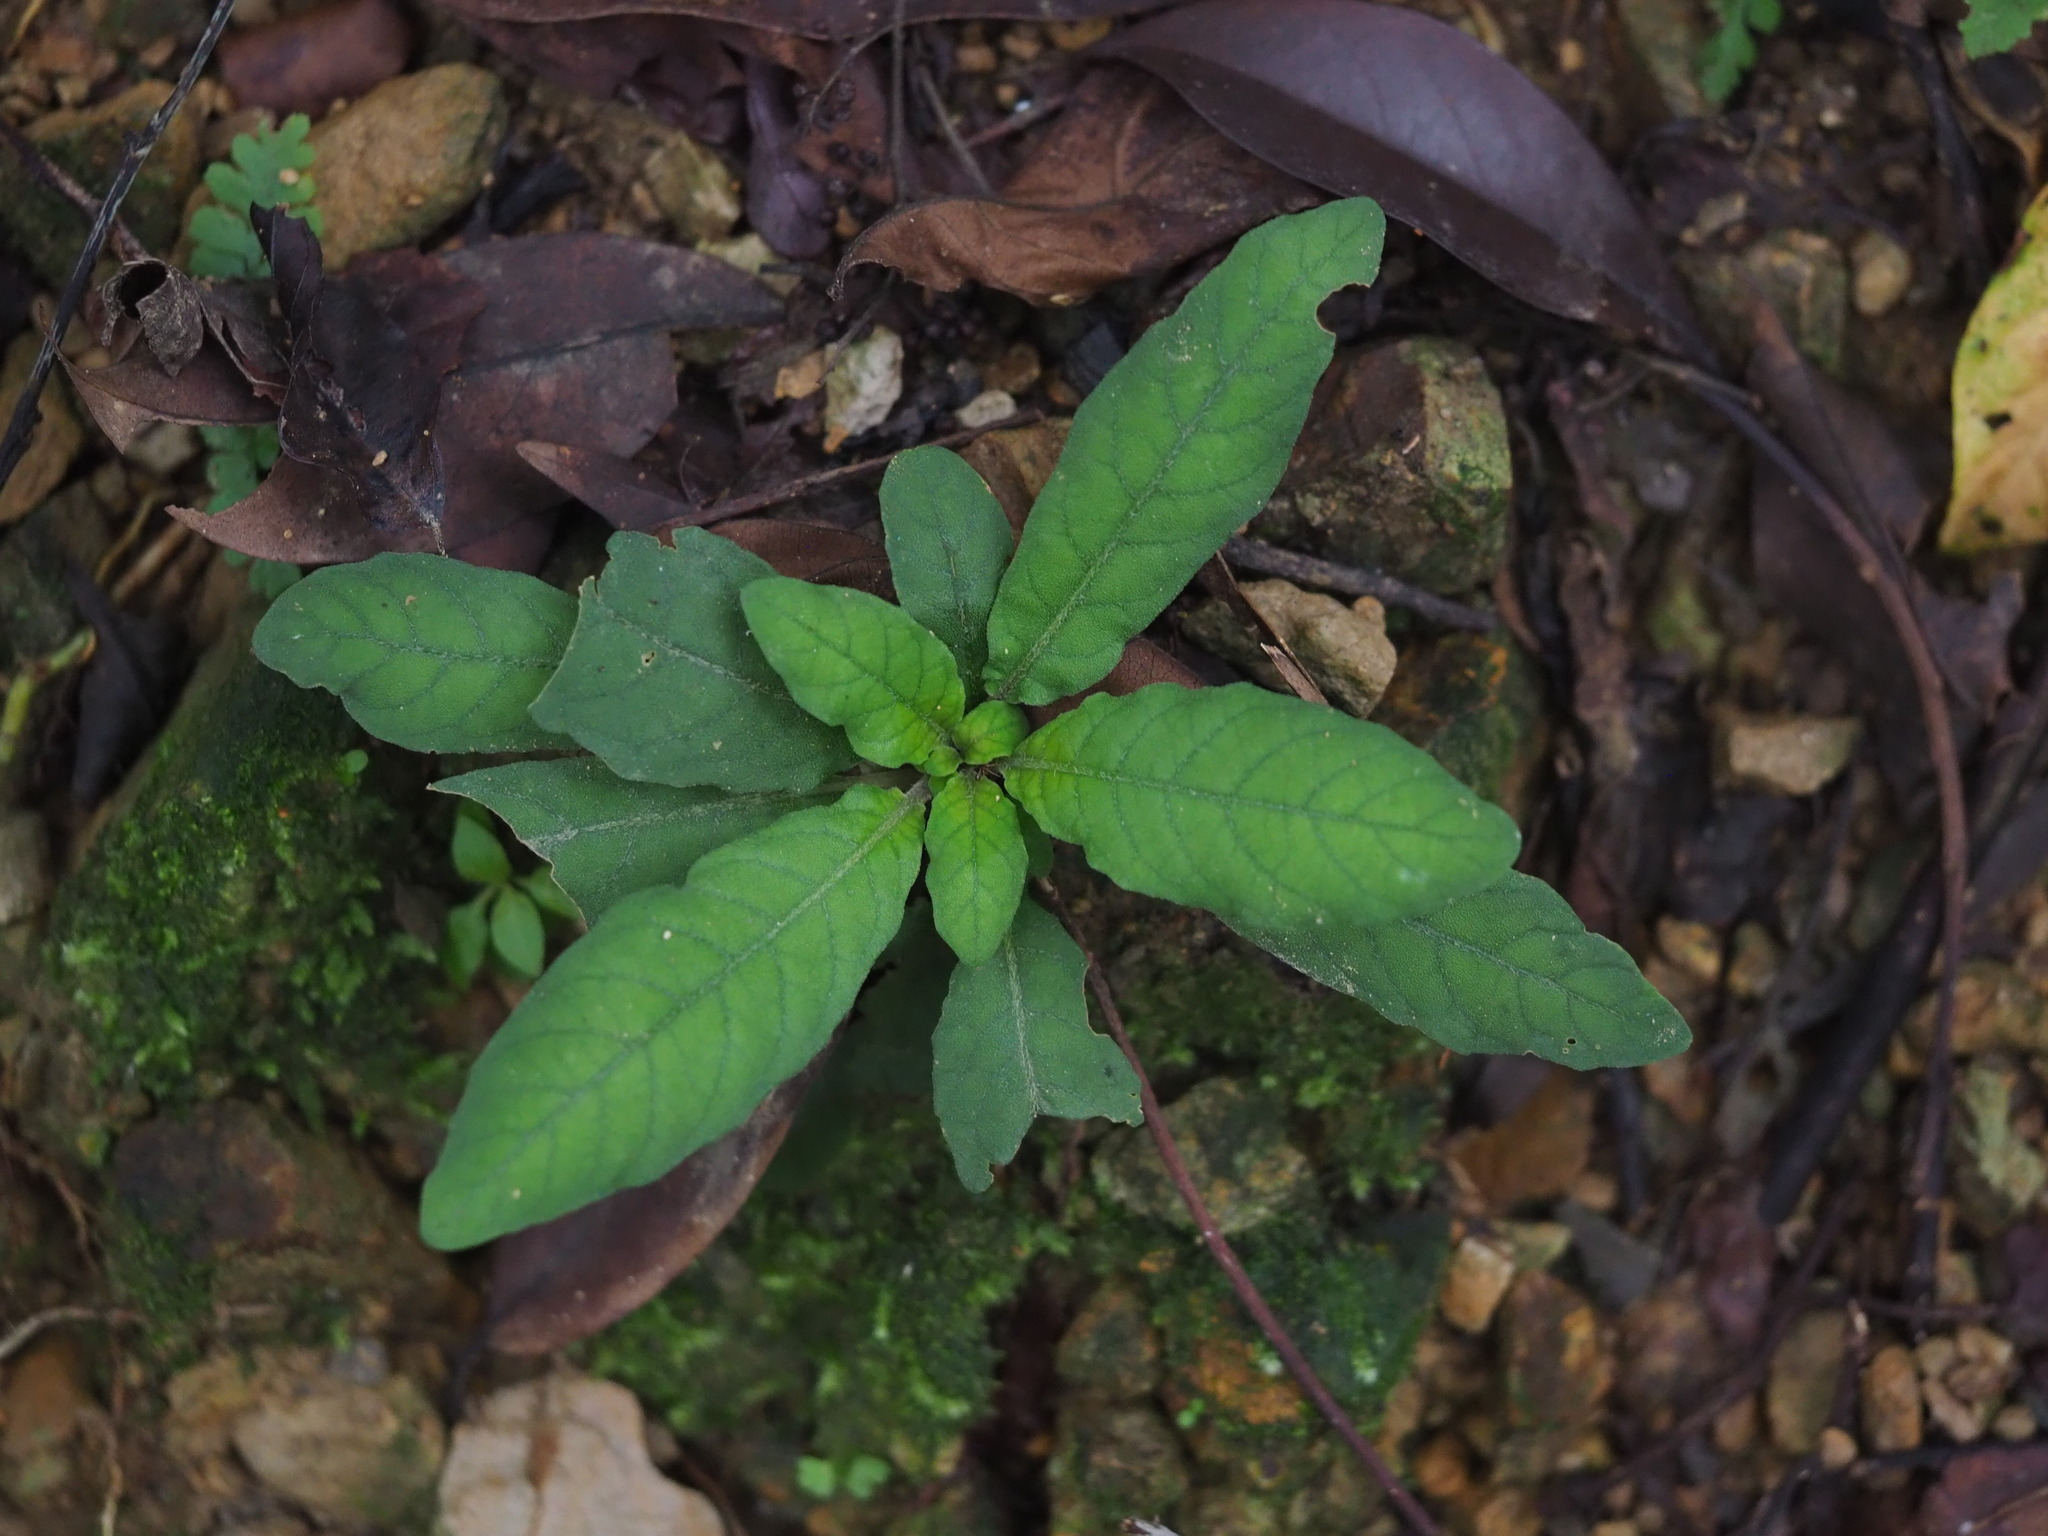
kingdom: Plantae
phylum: Tracheophyta
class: Magnoliopsida
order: Lamiales
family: Acanthaceae
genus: Staurogyne
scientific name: Staurogyne concinnula
